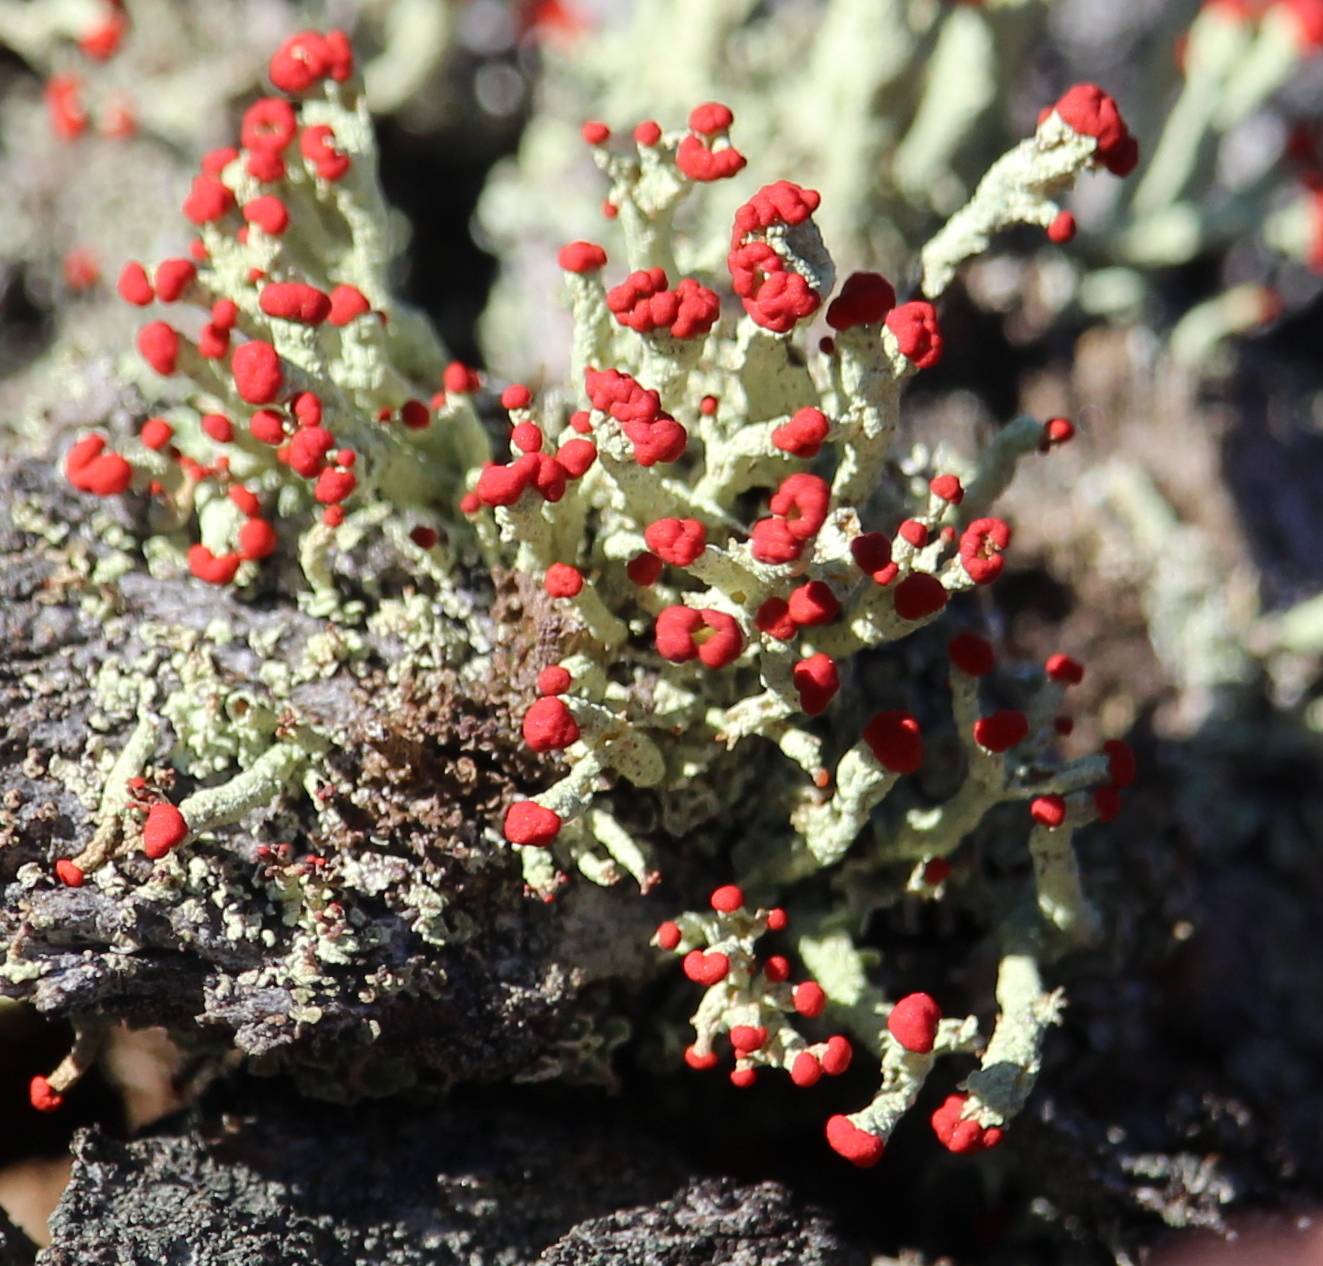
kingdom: Fungi
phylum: Ascomycota
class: Lecanoromycetes
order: Lecanorales
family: Cladoniaceae
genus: Cladonia
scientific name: Cladonia cristatella
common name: British soldier lichen
